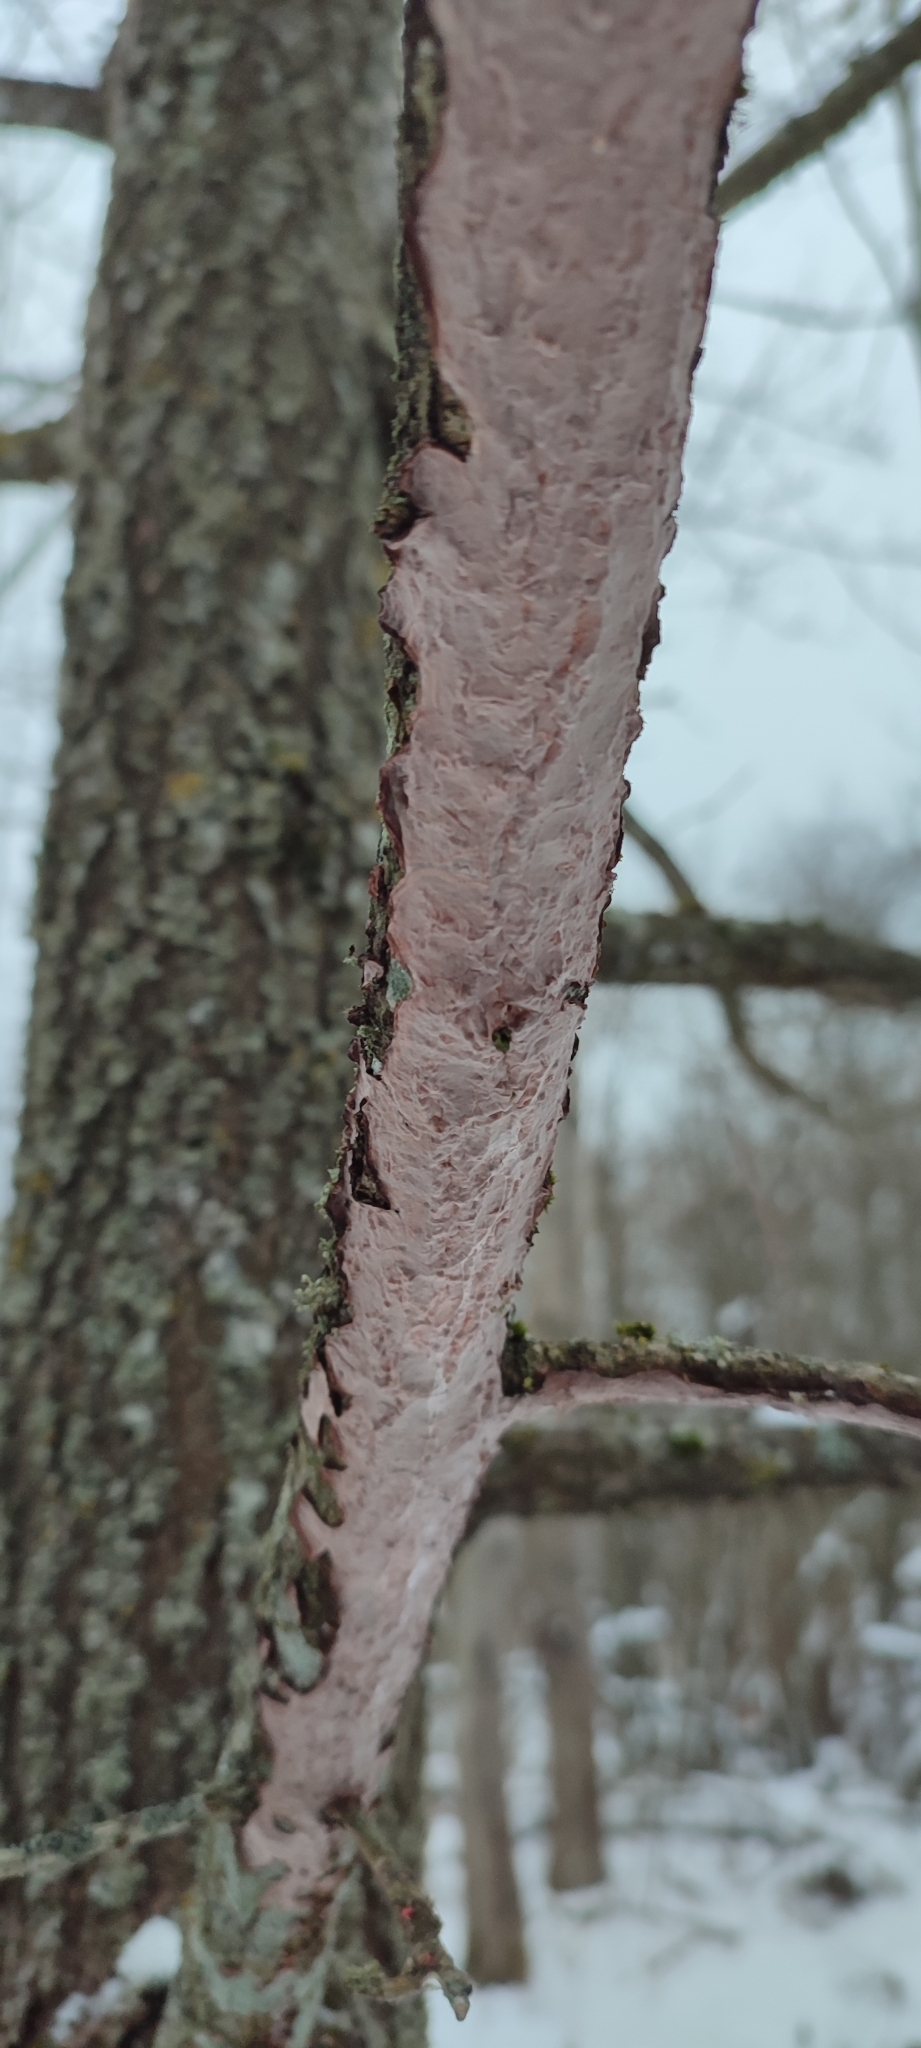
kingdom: Fungi
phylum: Basidiomycota
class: Agaricomycetes
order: Corticiales
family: Corticiaceae
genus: Corticium
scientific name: Corticium roseum
